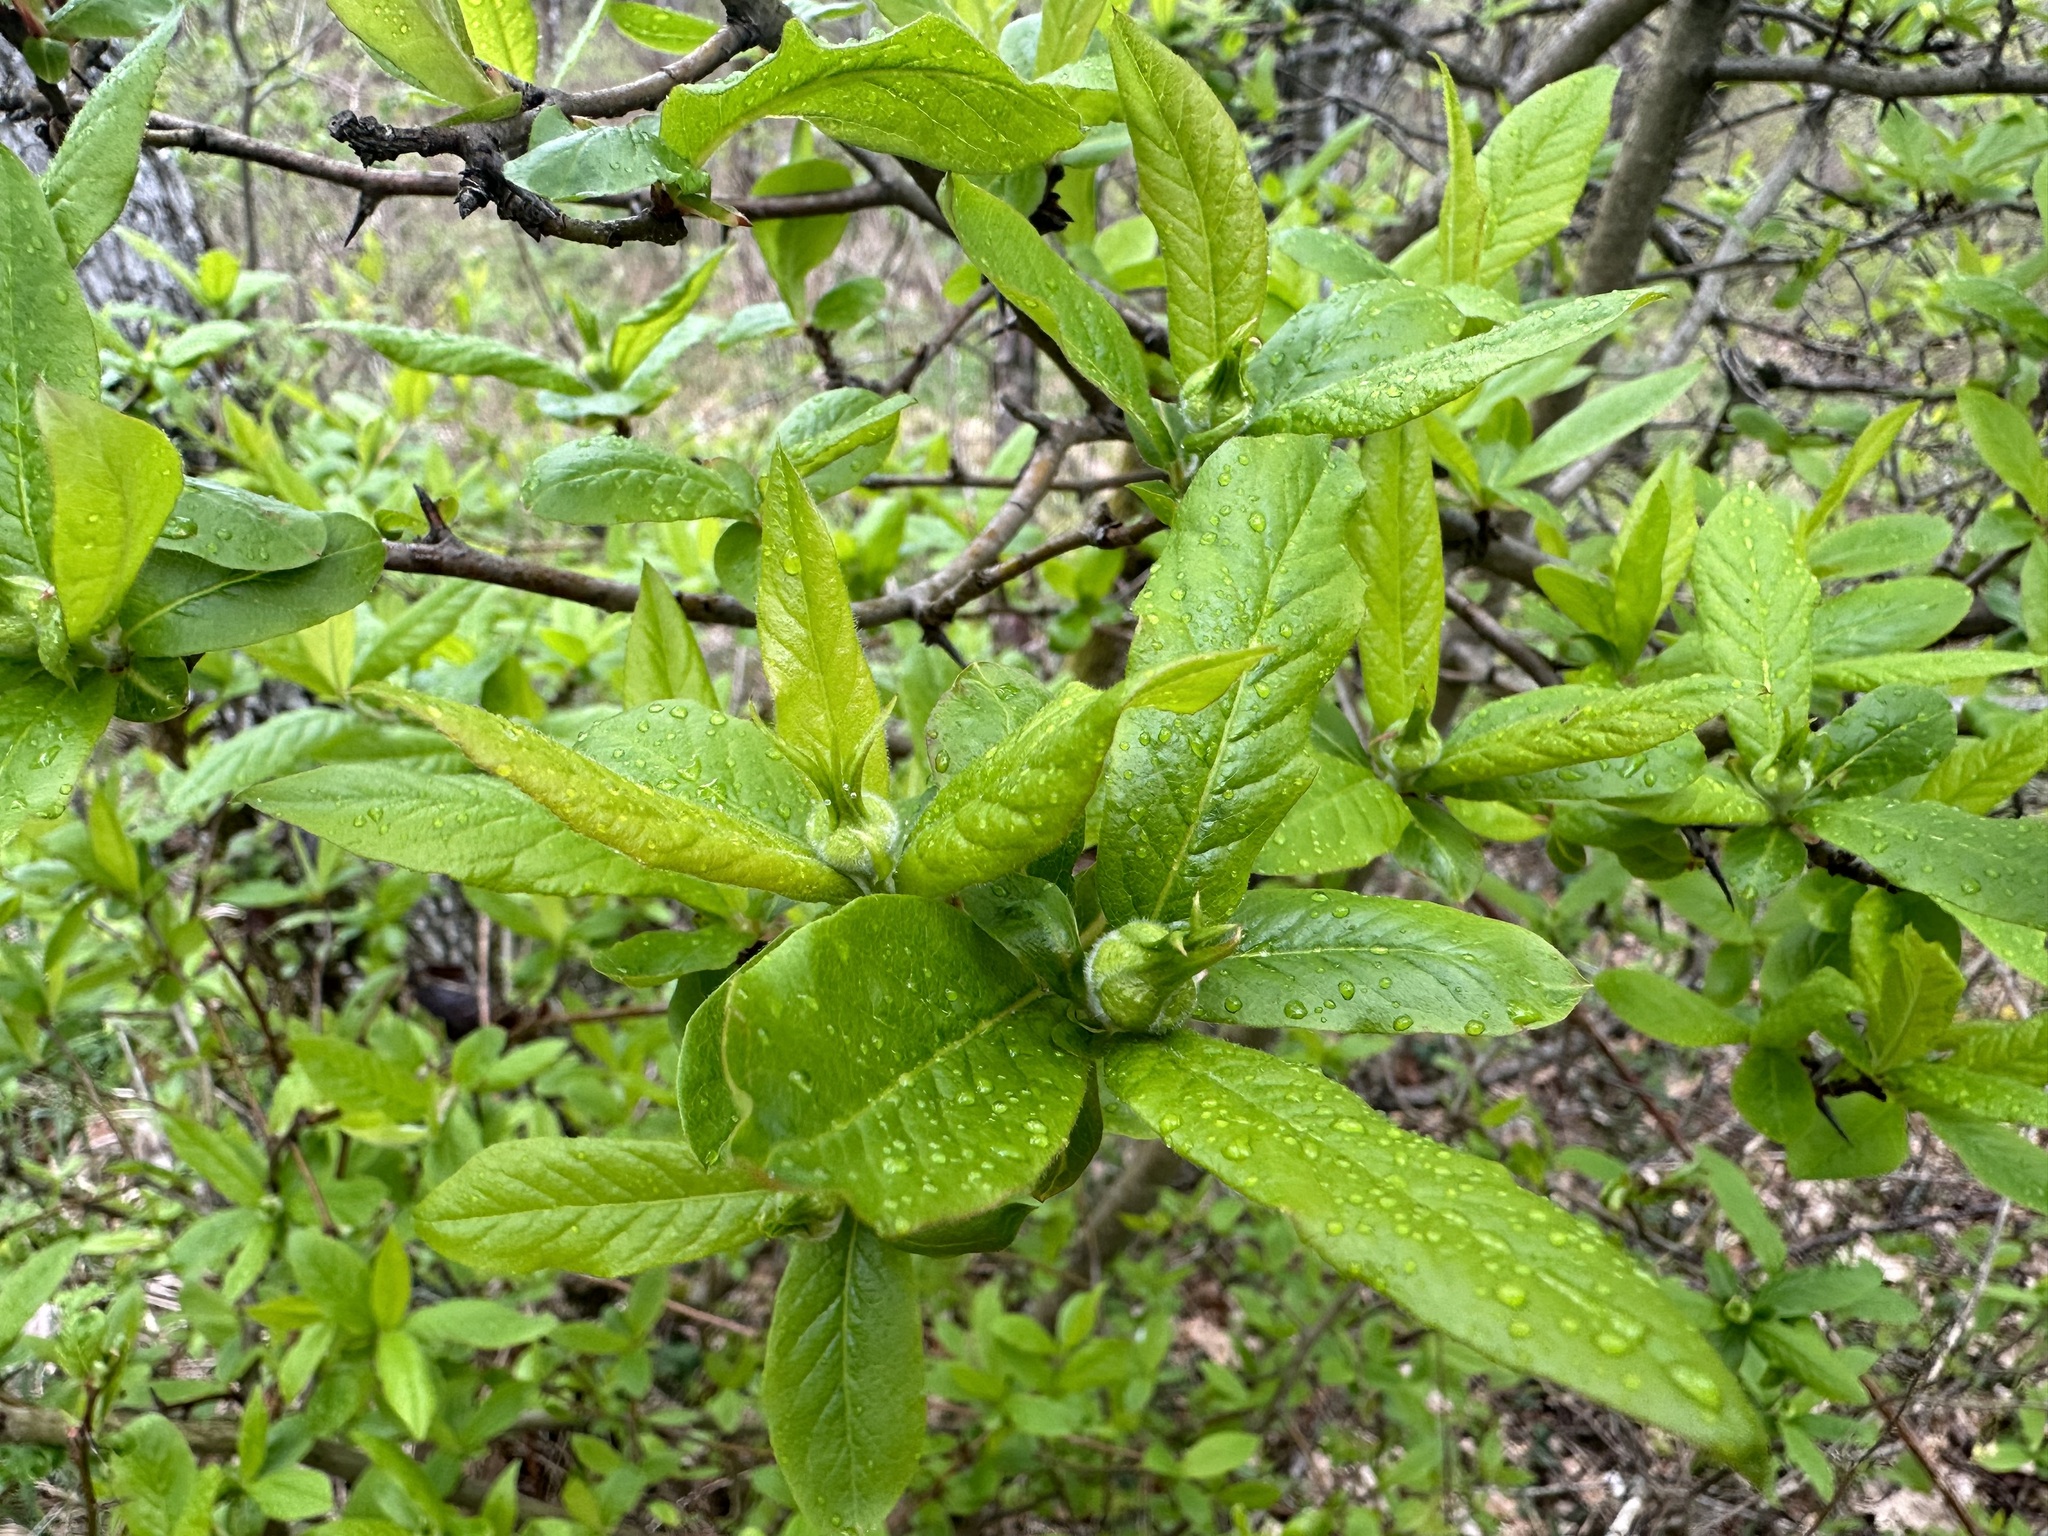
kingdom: Plantae
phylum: Tracheophyta
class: Magnoliopsida
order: Rosales
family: Rosaceae
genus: Mespilus
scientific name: Mespilus germanica
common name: Medlar
